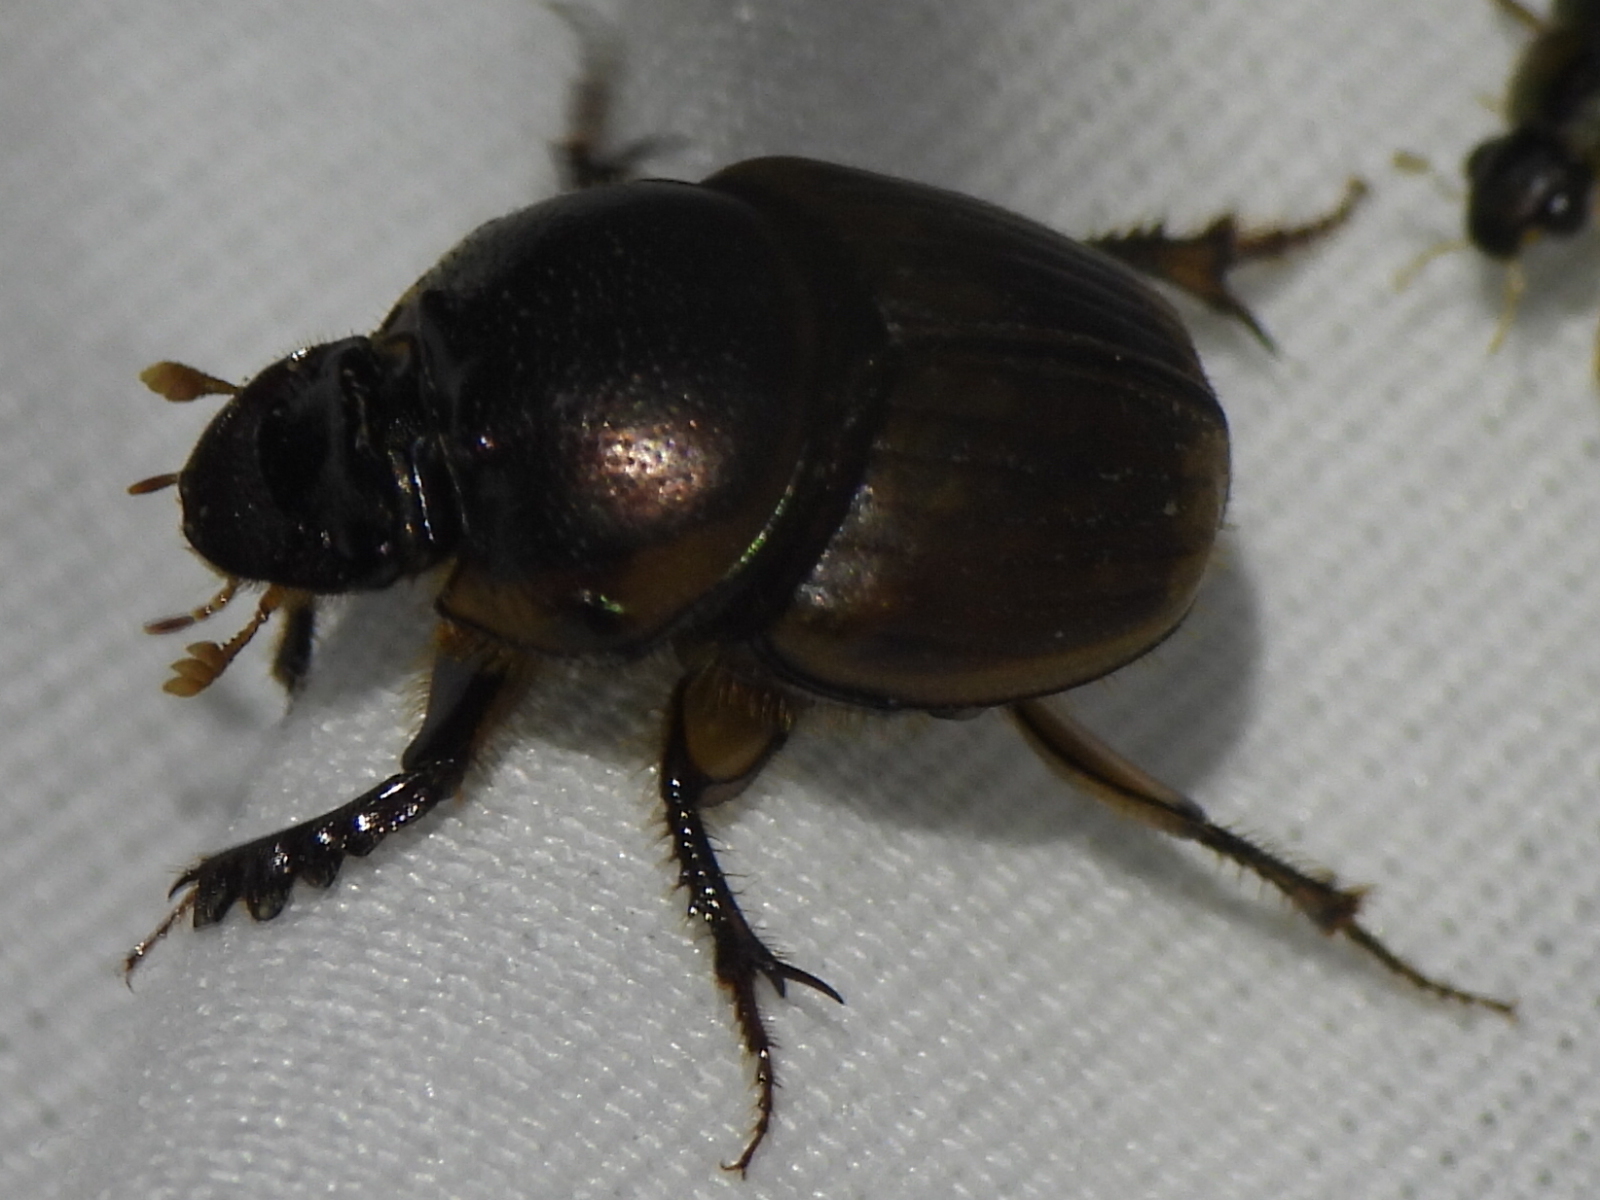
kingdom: Animalia
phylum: Arthropoda
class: Insecta
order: Coleoptera
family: Scarabaeidae
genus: Digitonthophagus
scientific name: Digitonthophagus gazella
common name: Brown dung beetle
